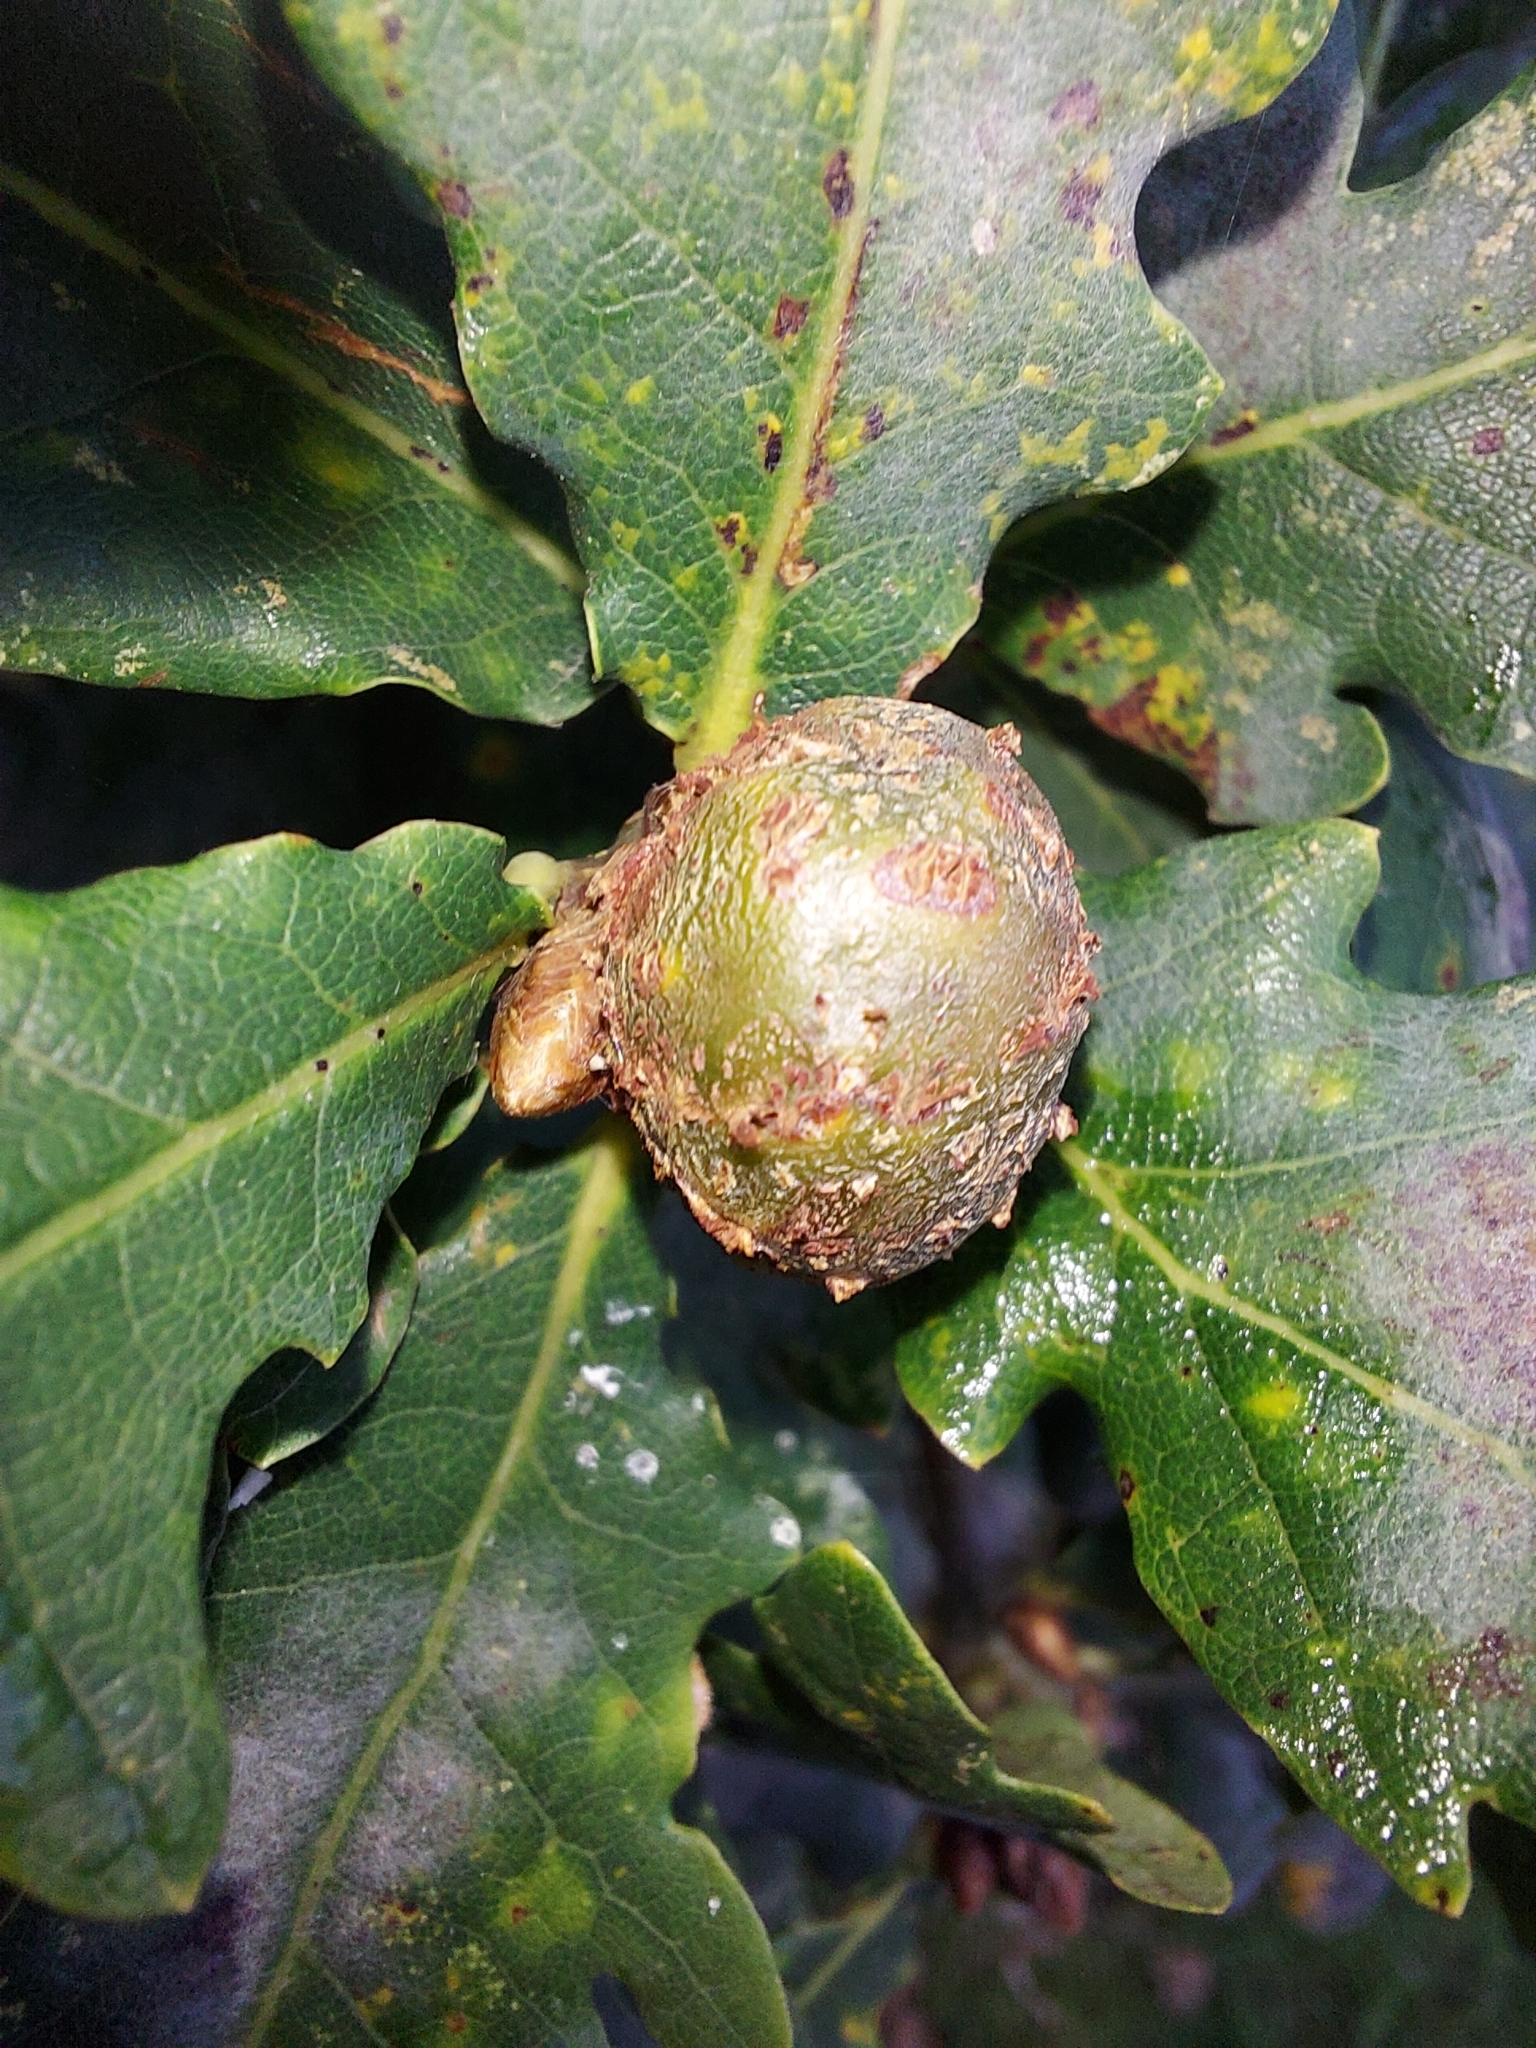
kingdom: Animalia
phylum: Arthropoda
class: Insecta
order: Hymenoptera
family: Cynipidae
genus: Andricus
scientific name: Andricus lignicolus
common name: Cola-nut gall
